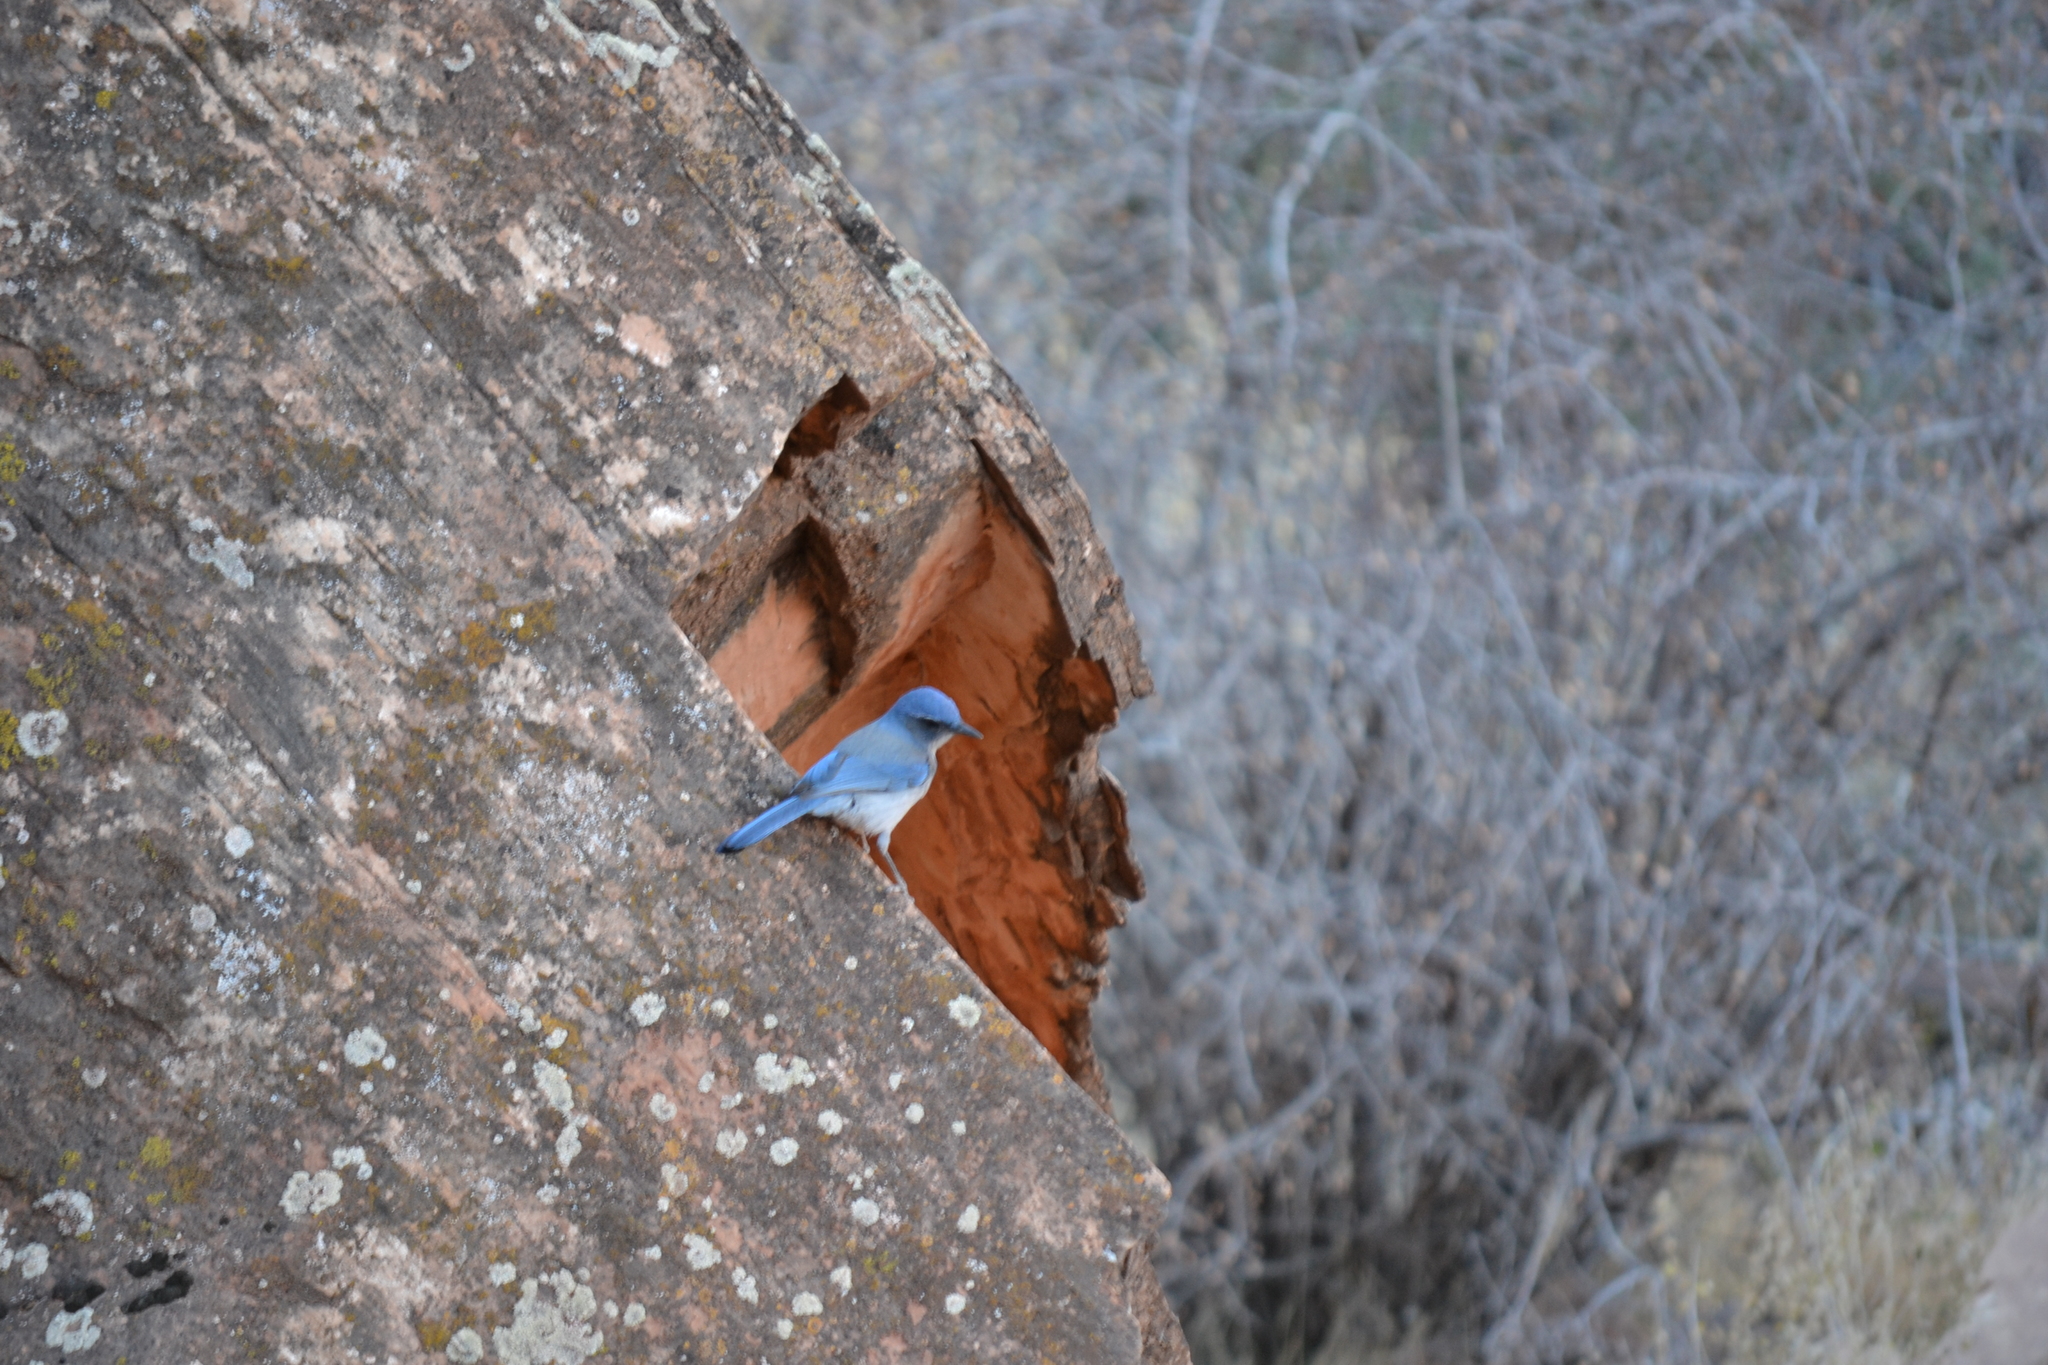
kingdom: Animalia
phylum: Chordata
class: Aves
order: Passeriformes
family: Corvidae
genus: Aphelocoma
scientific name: Aphelocoma woodhouseii
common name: Woodhouse's scrub-jay
